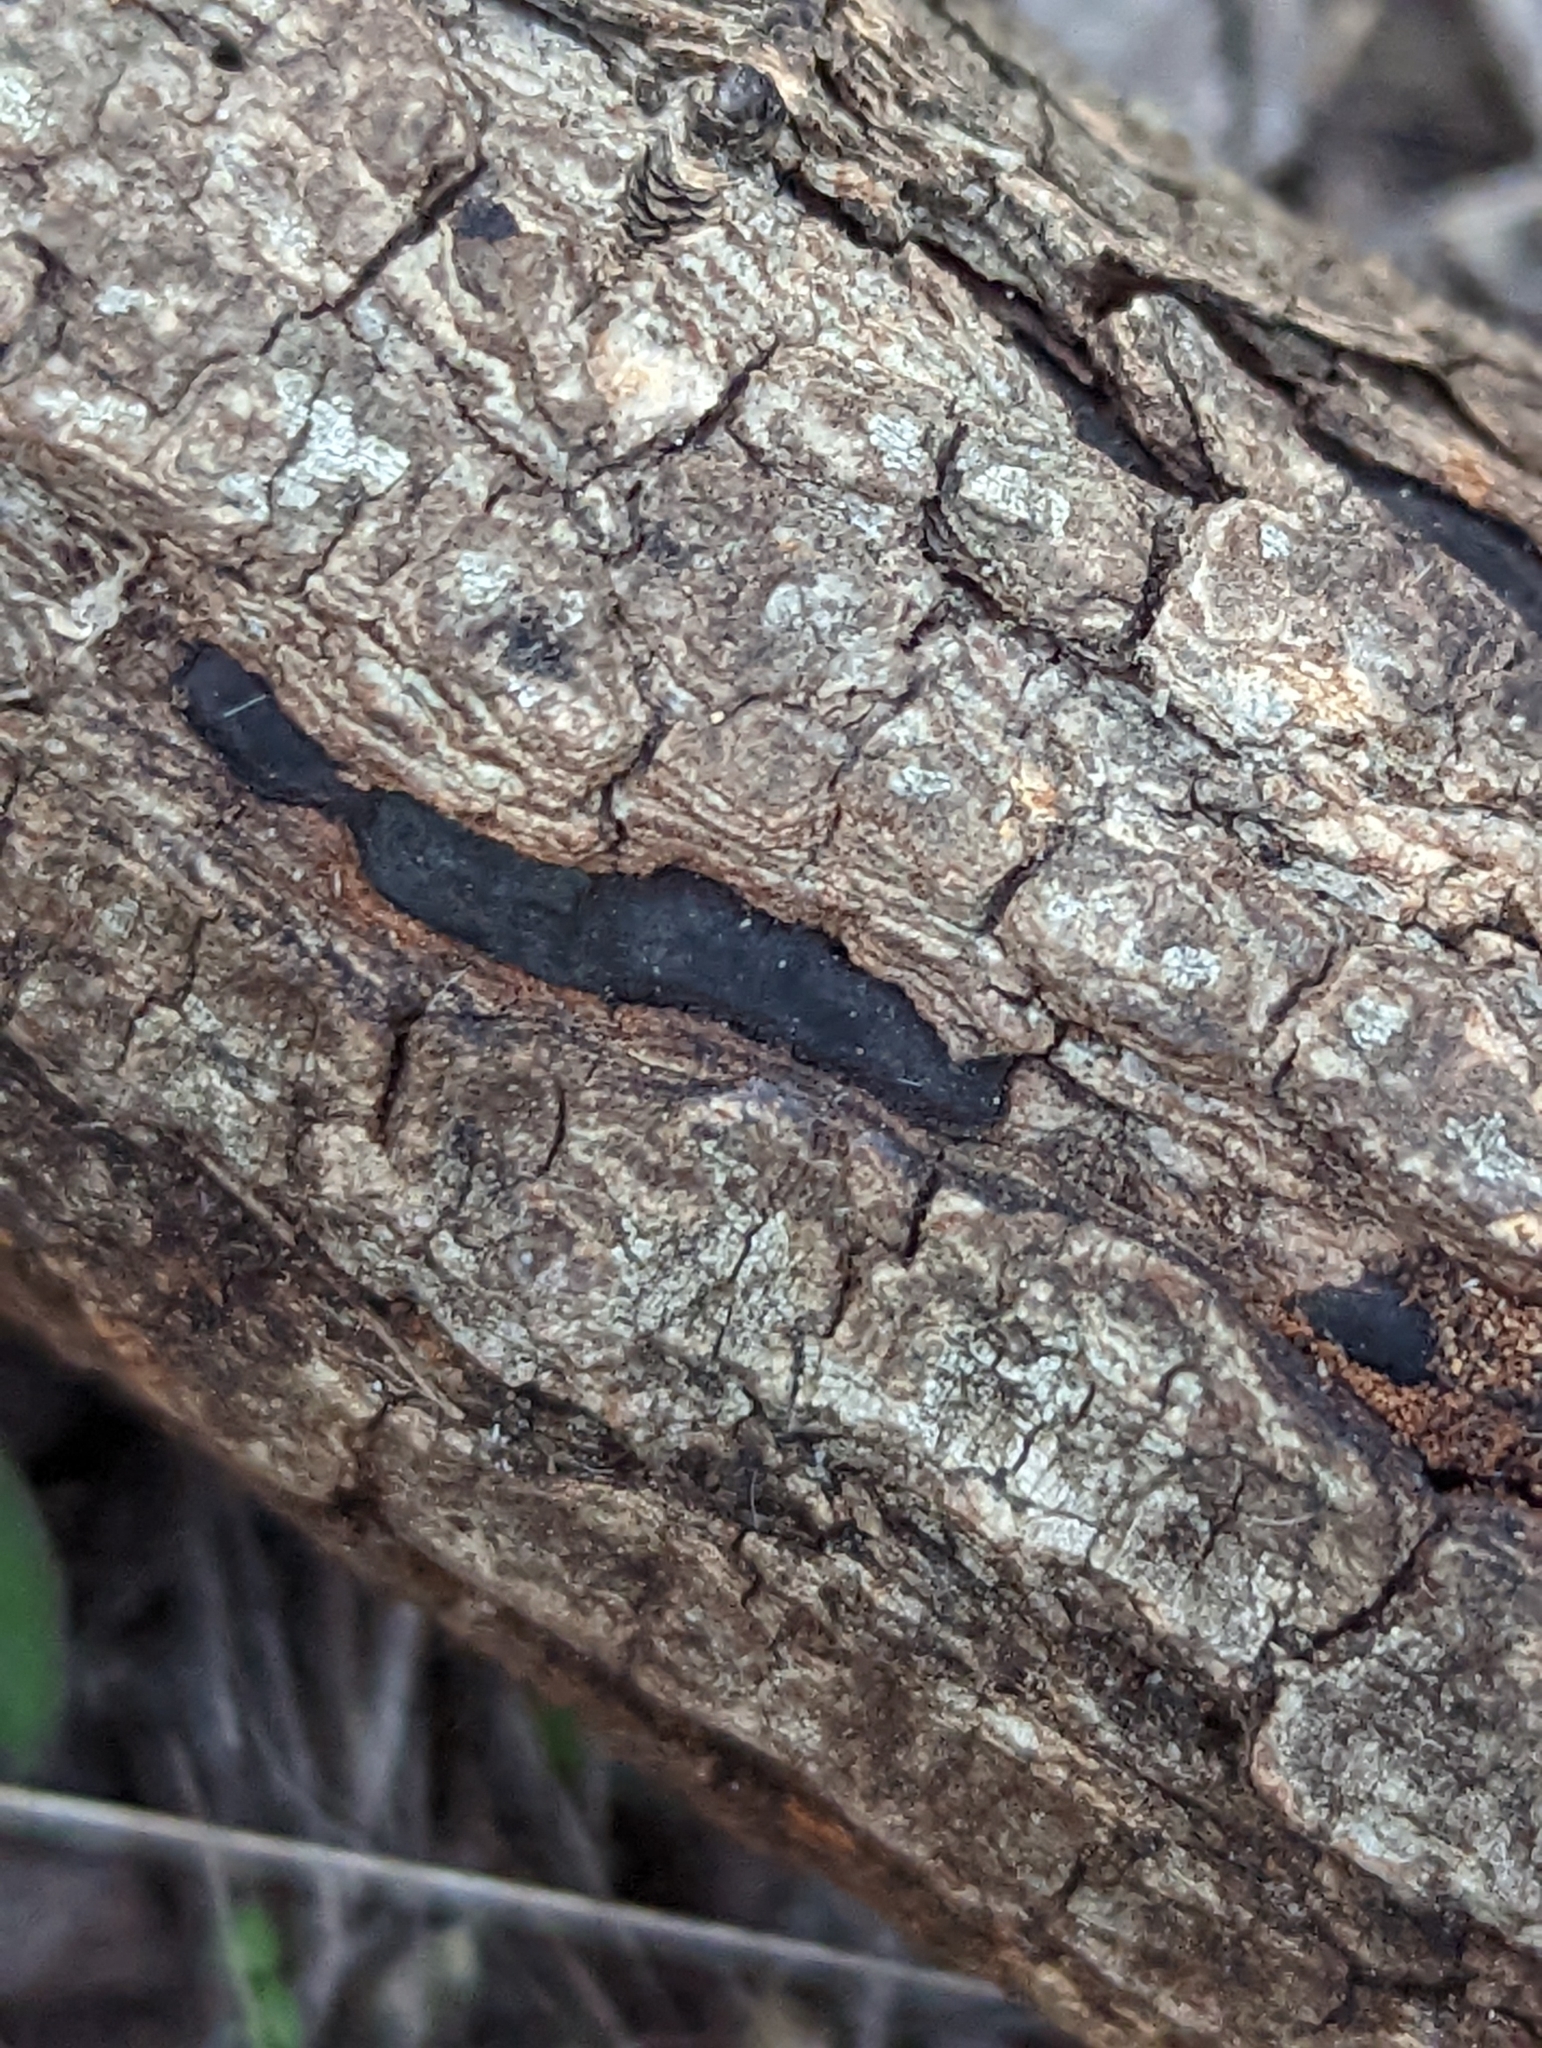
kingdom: Fungi
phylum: Ascomycota
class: Sordariomycetes
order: Xylariales
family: Xylariaceae
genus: Whalleya
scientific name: Whalleya microplaca
